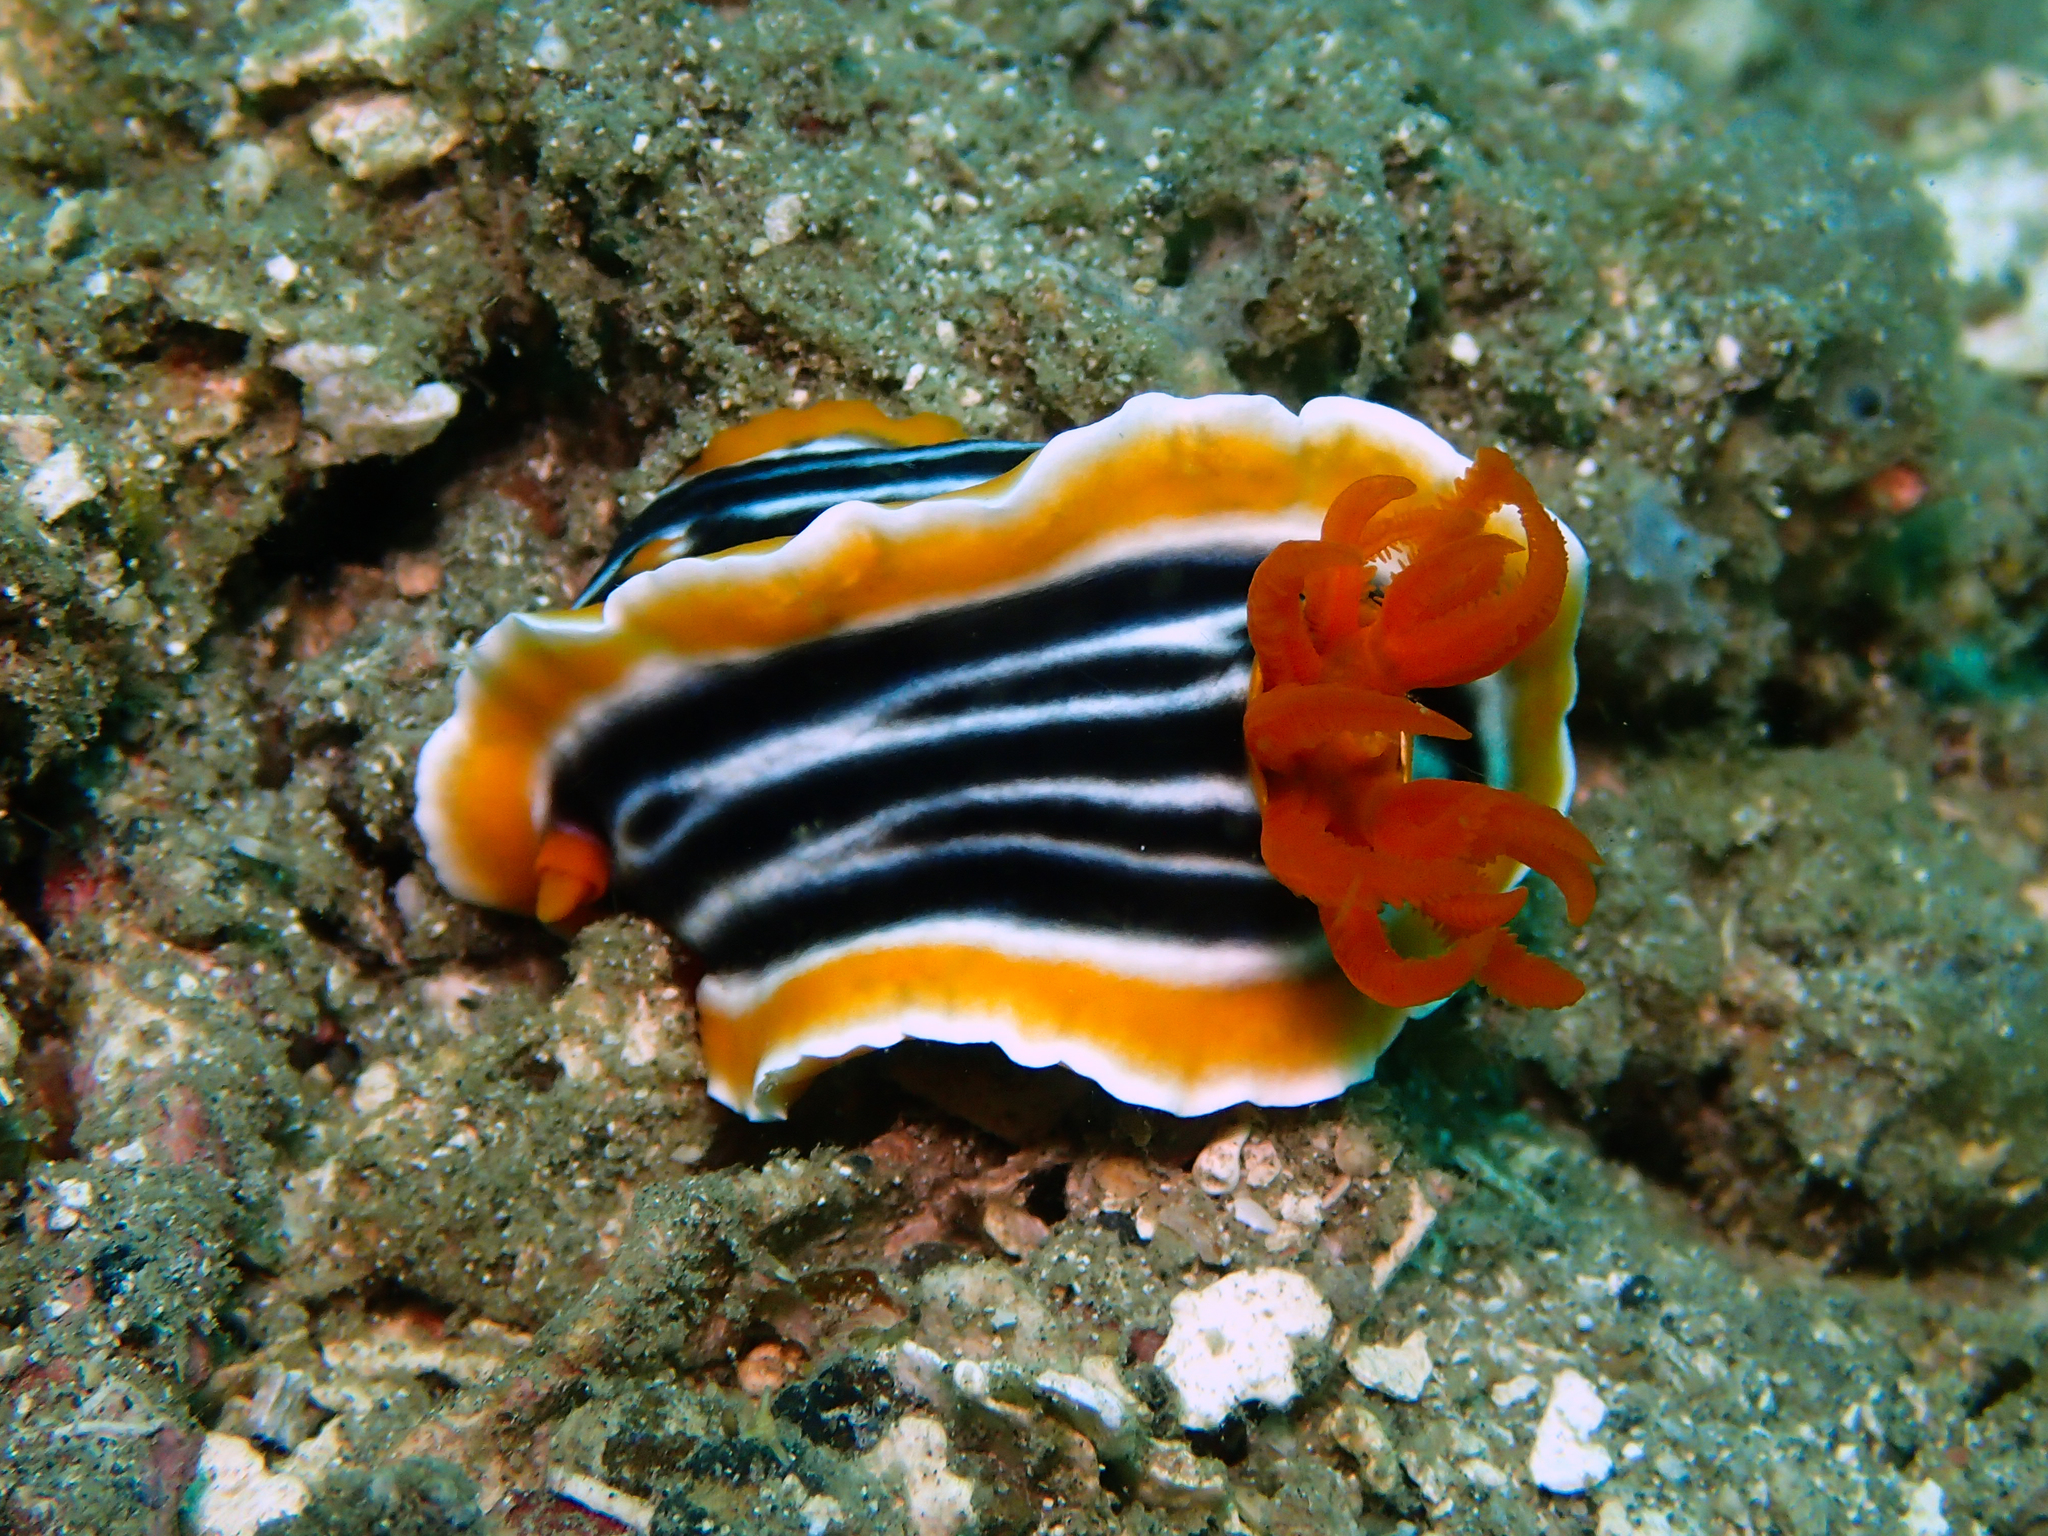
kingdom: Animalia
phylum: Mollusca
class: Gastropoda
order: Nudibranchia
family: Chromodorididae
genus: Chromodoris
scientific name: Chromodoris magnifica
